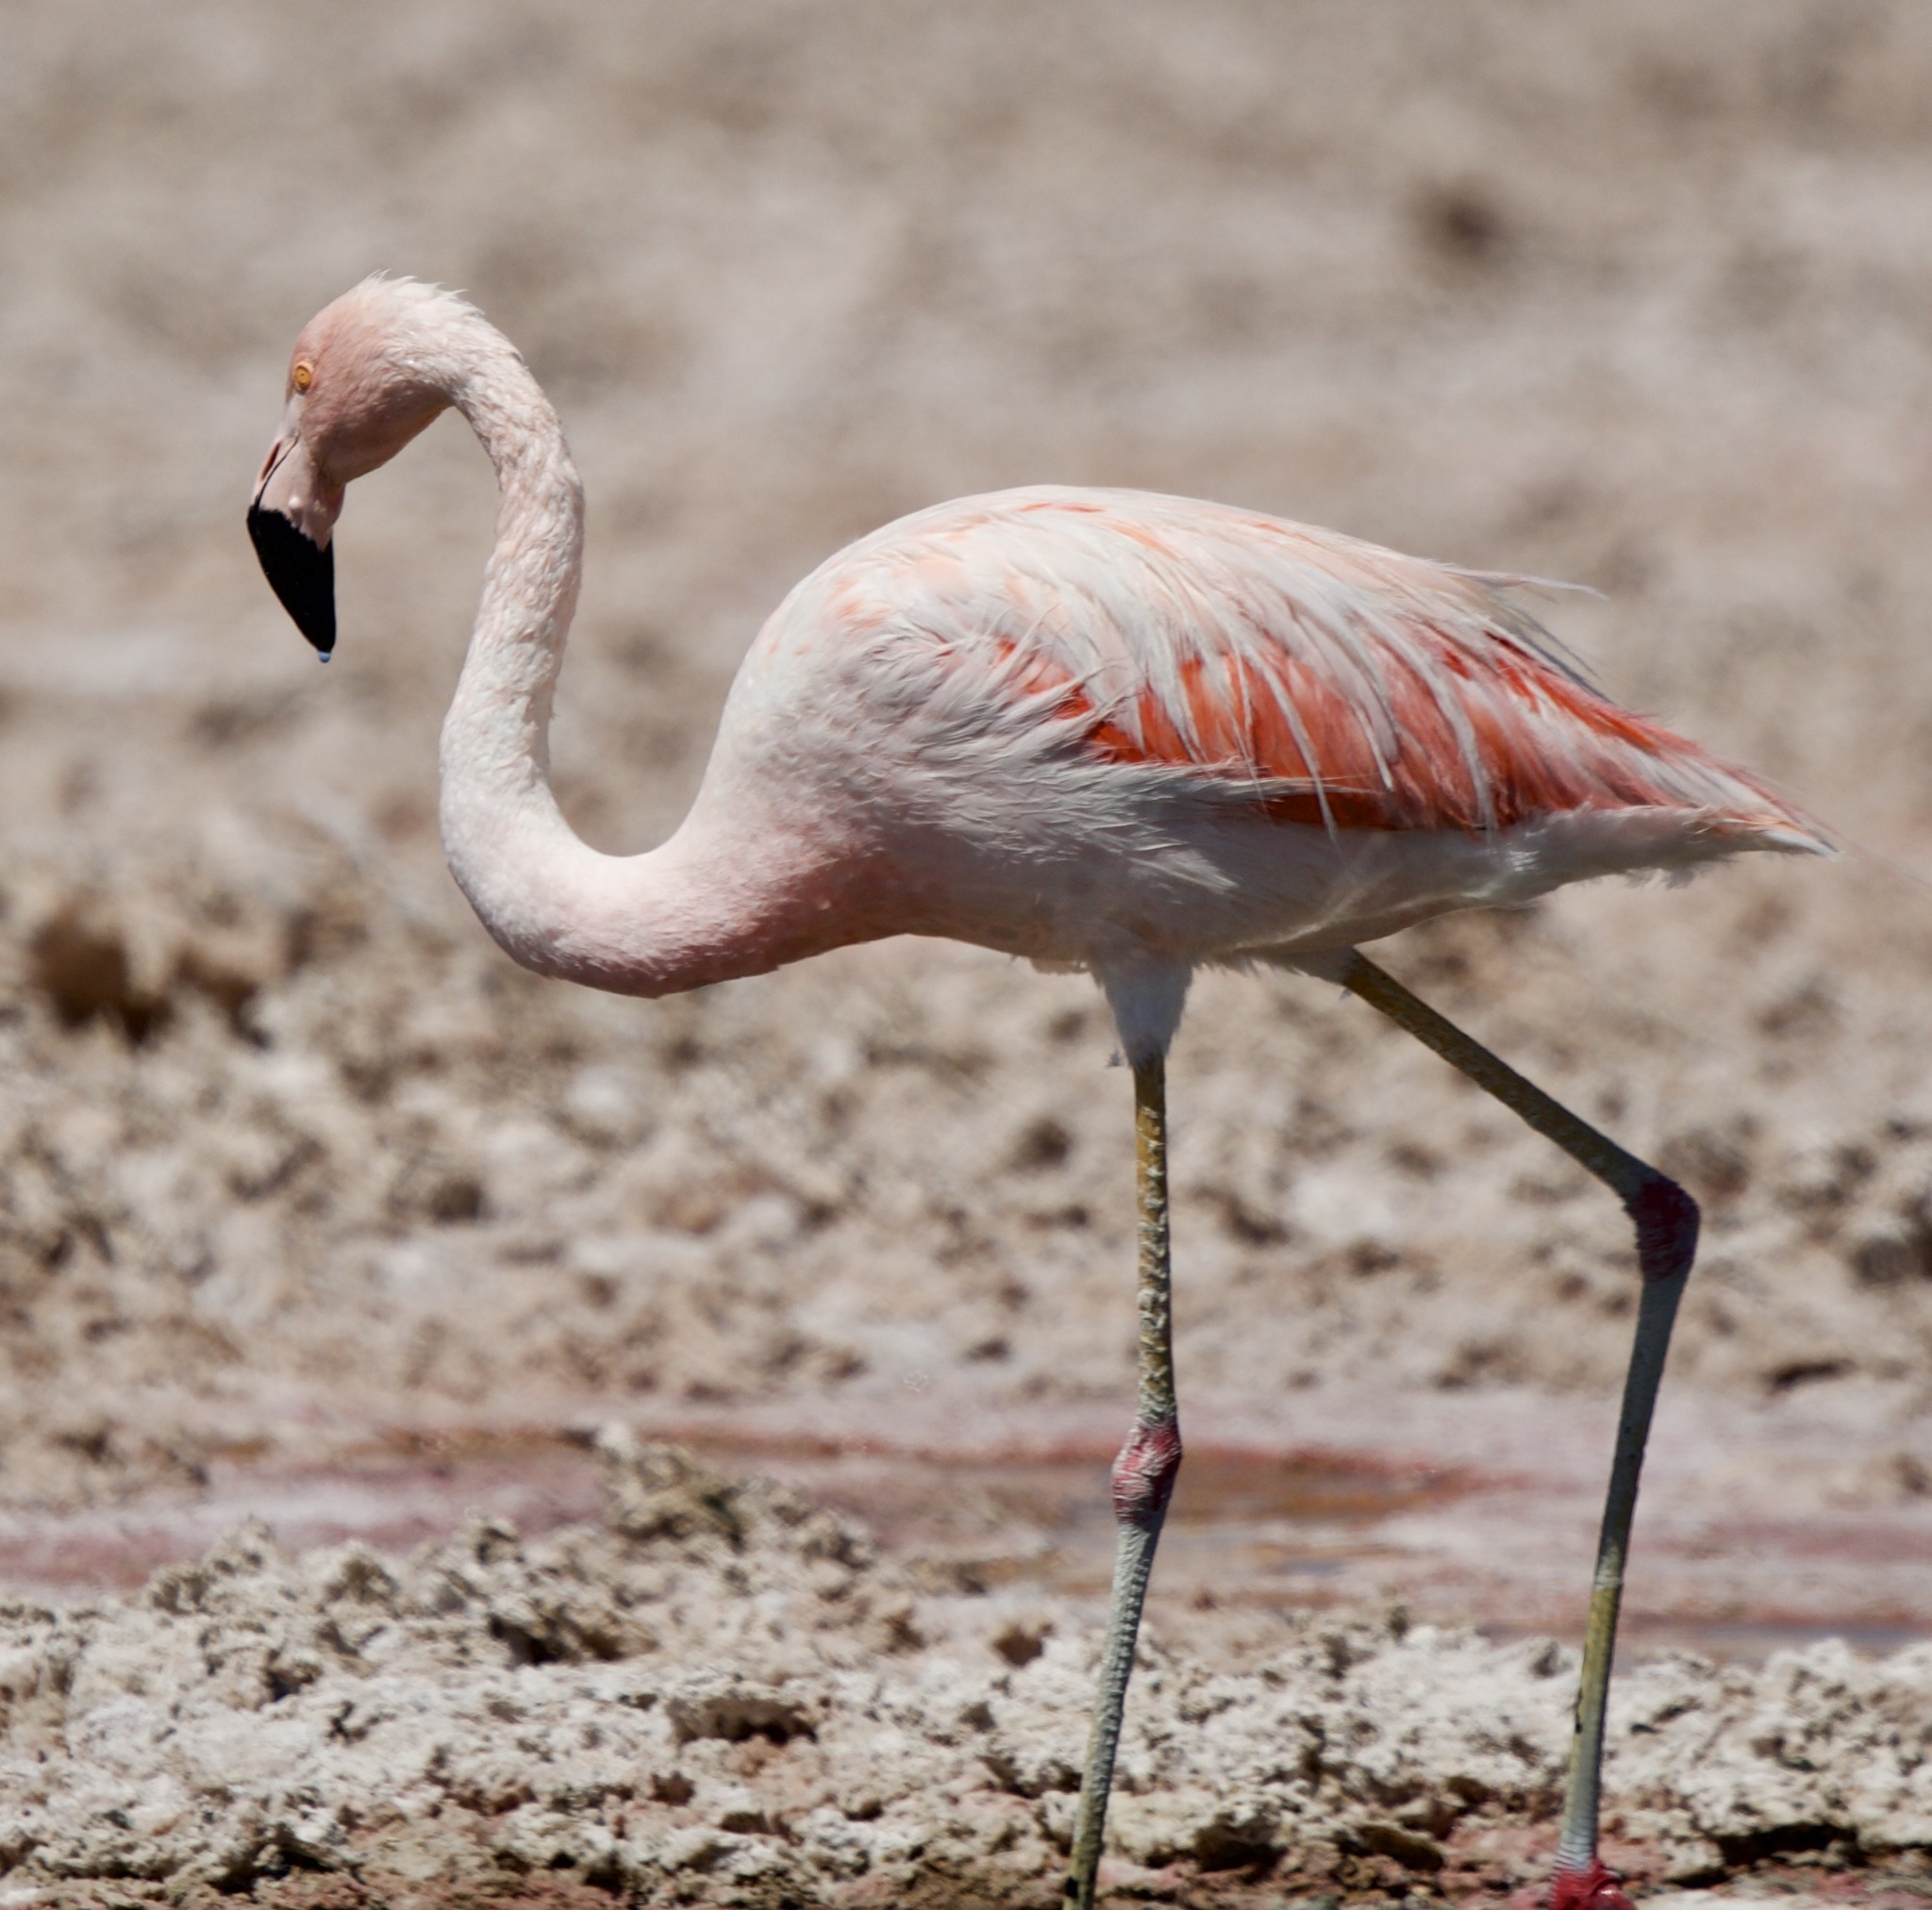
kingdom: Animalia
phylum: Chordata
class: Aves
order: Phoenicopteriformes
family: Phoenicopteridae
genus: Phoenicopterus
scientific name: Phoenicopterus chilensis
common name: Chilean flamingo
